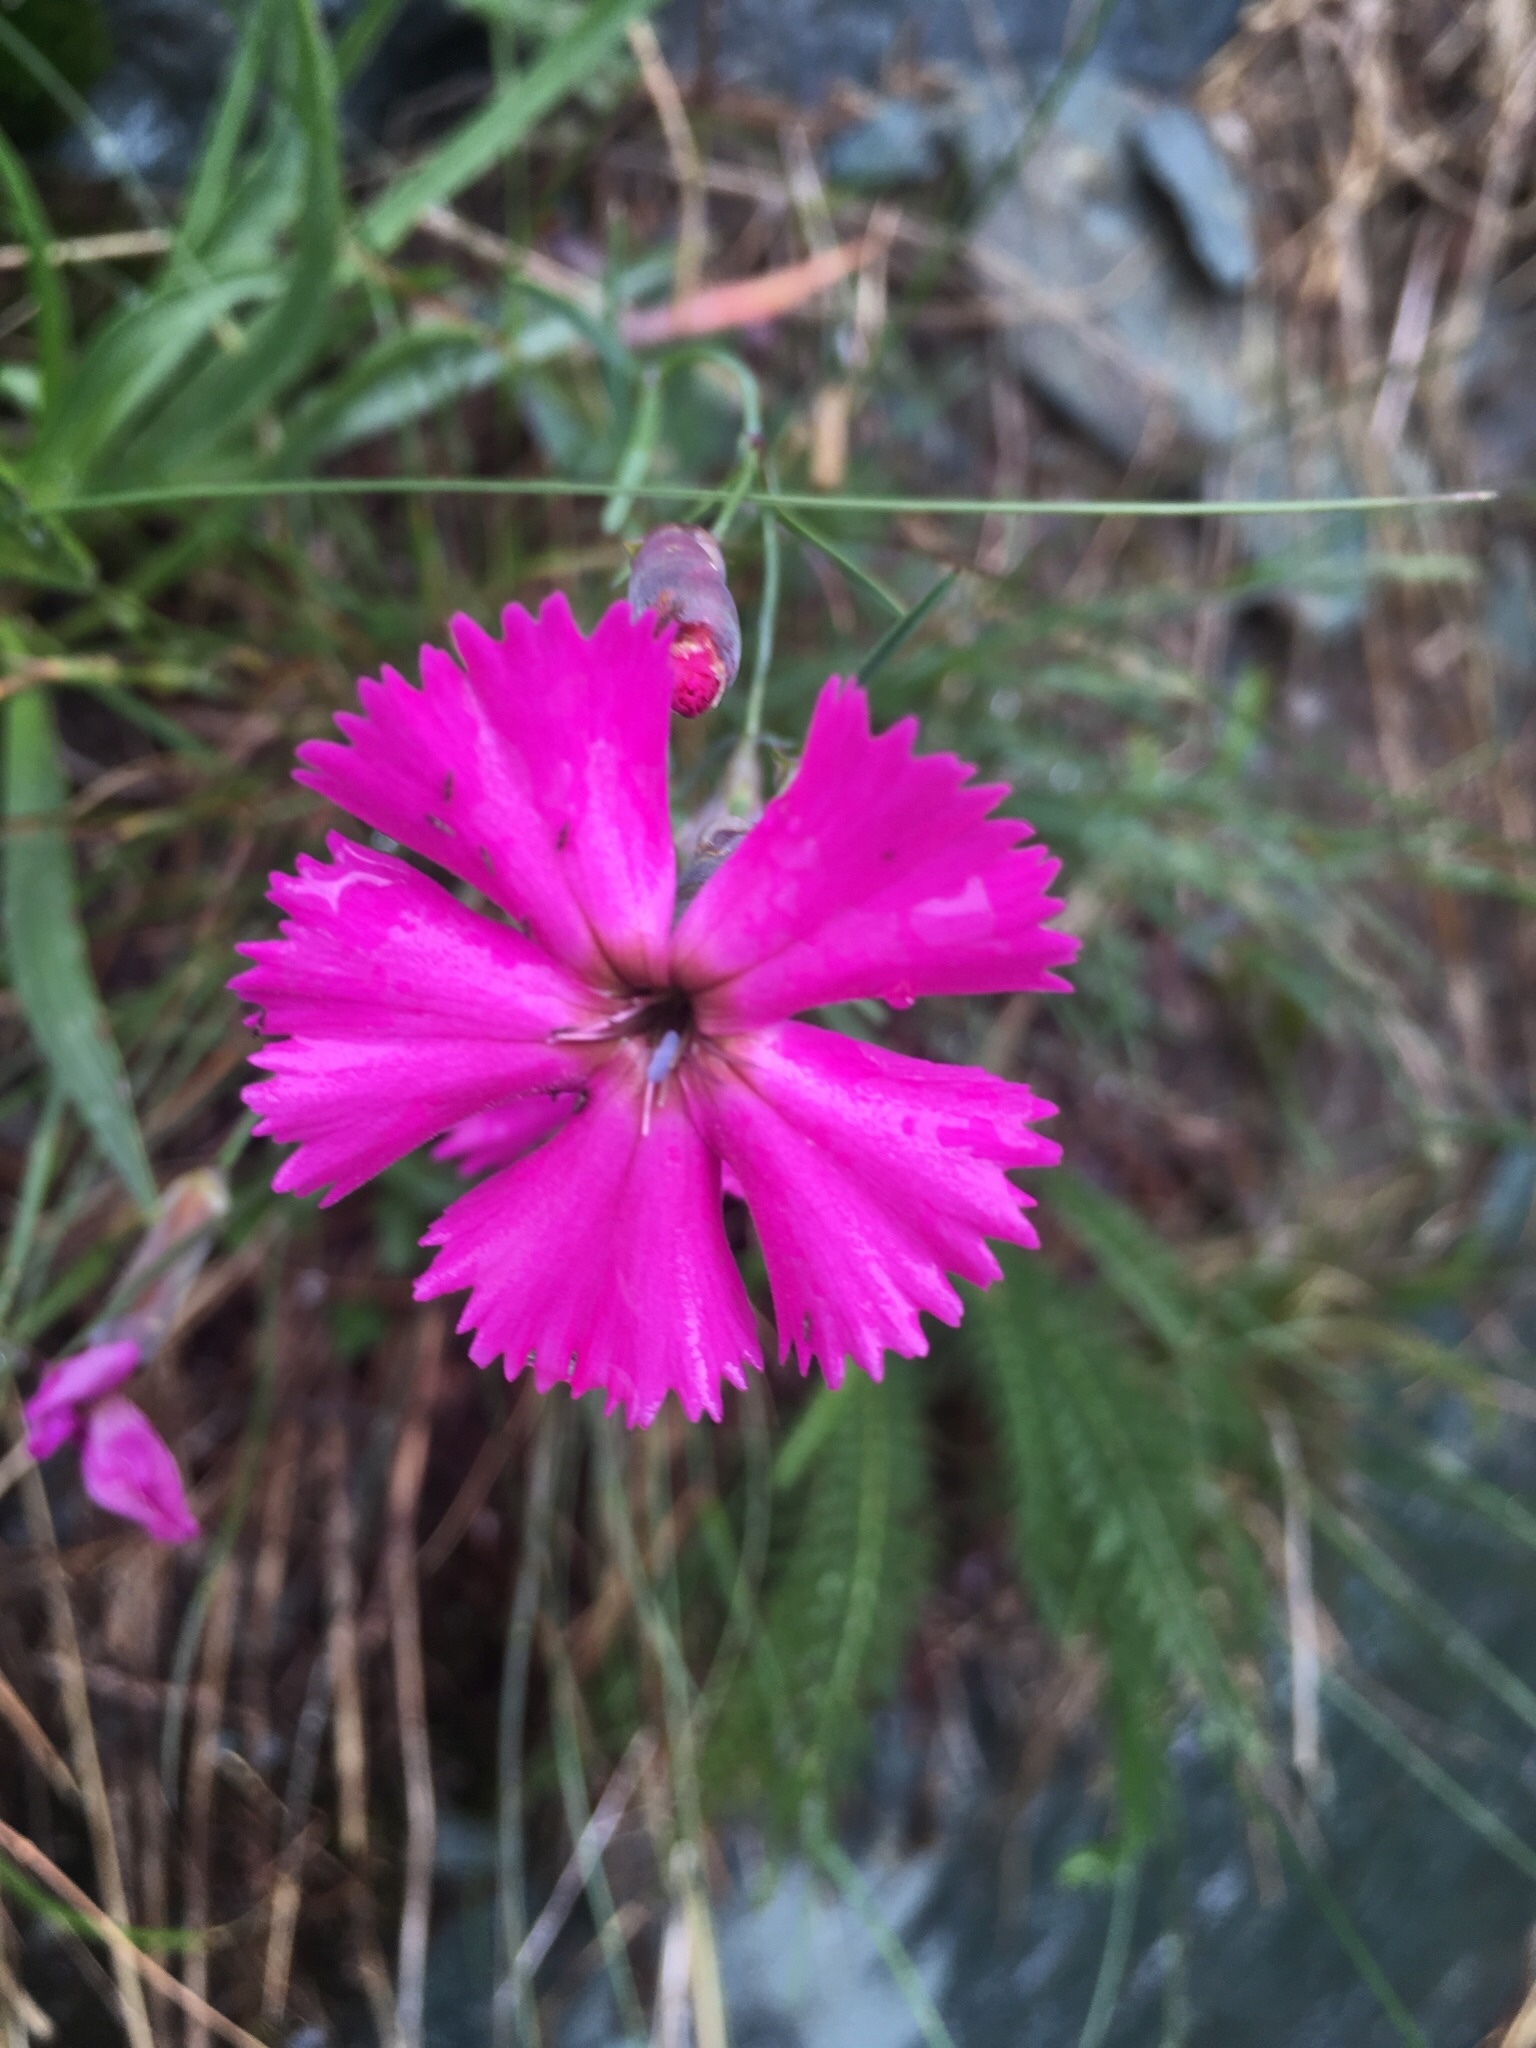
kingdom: Plantae
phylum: Tracheophyta
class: Magnoliopsida
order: Caryophyllales
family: Caryophyllaceae
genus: Dianthus
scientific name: Dianthus sylvestris
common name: Wood pink
